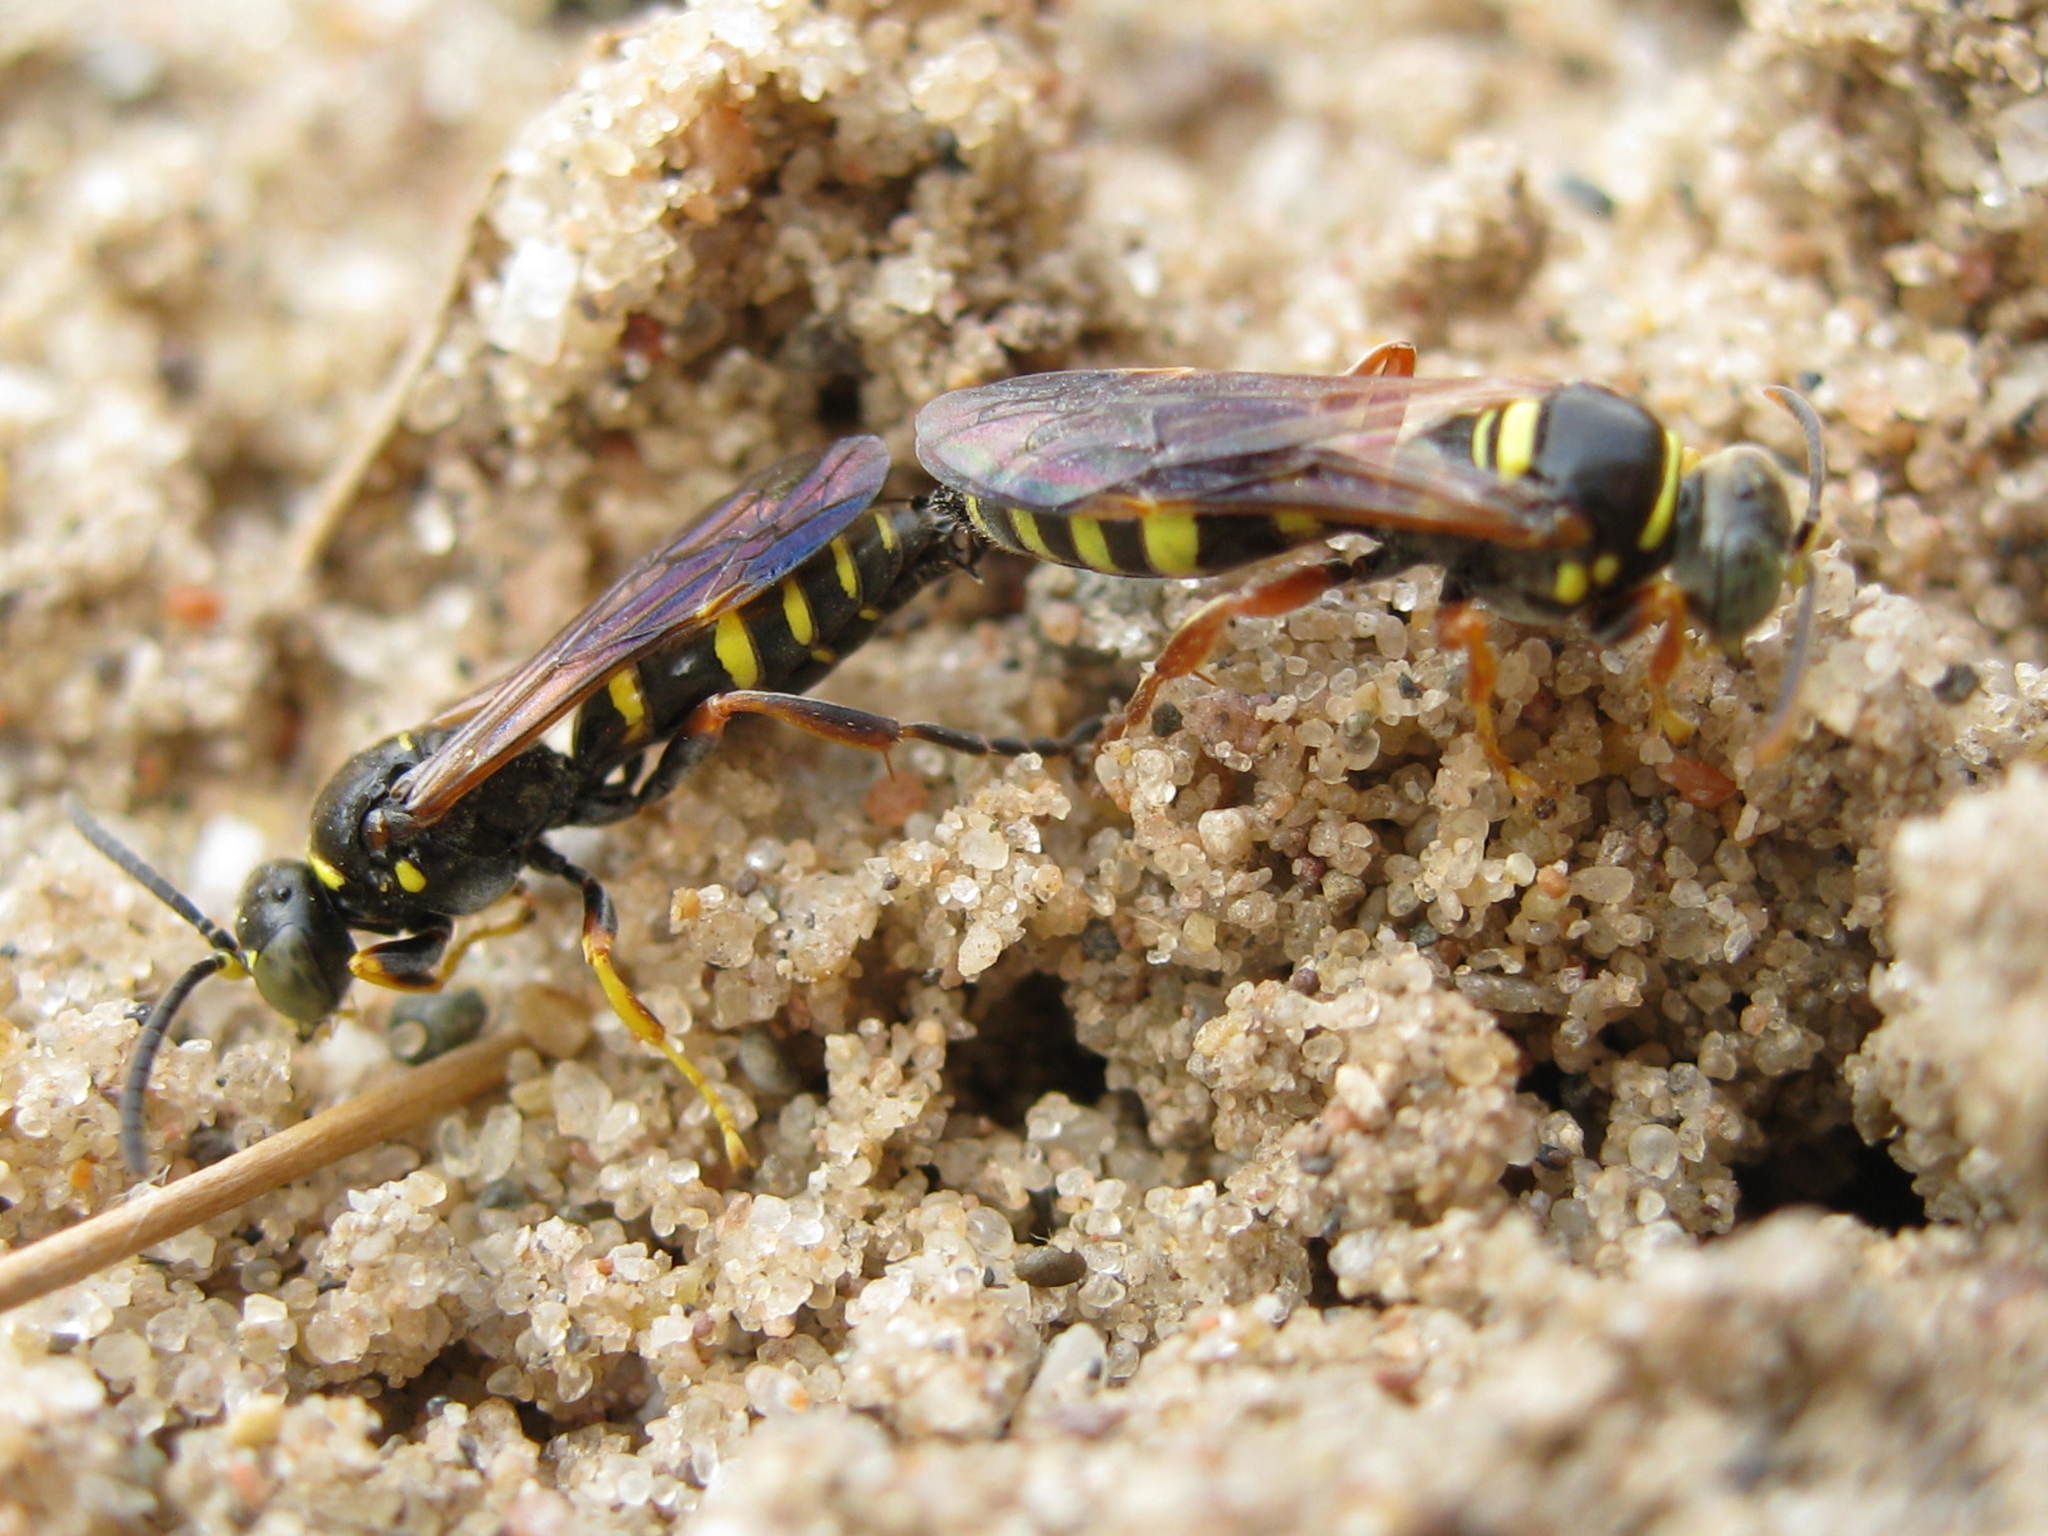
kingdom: Animalia
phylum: Arthropoda
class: Insecta
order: Hymenoptera
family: Crabronidae
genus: Gorytes
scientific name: Gorytes
